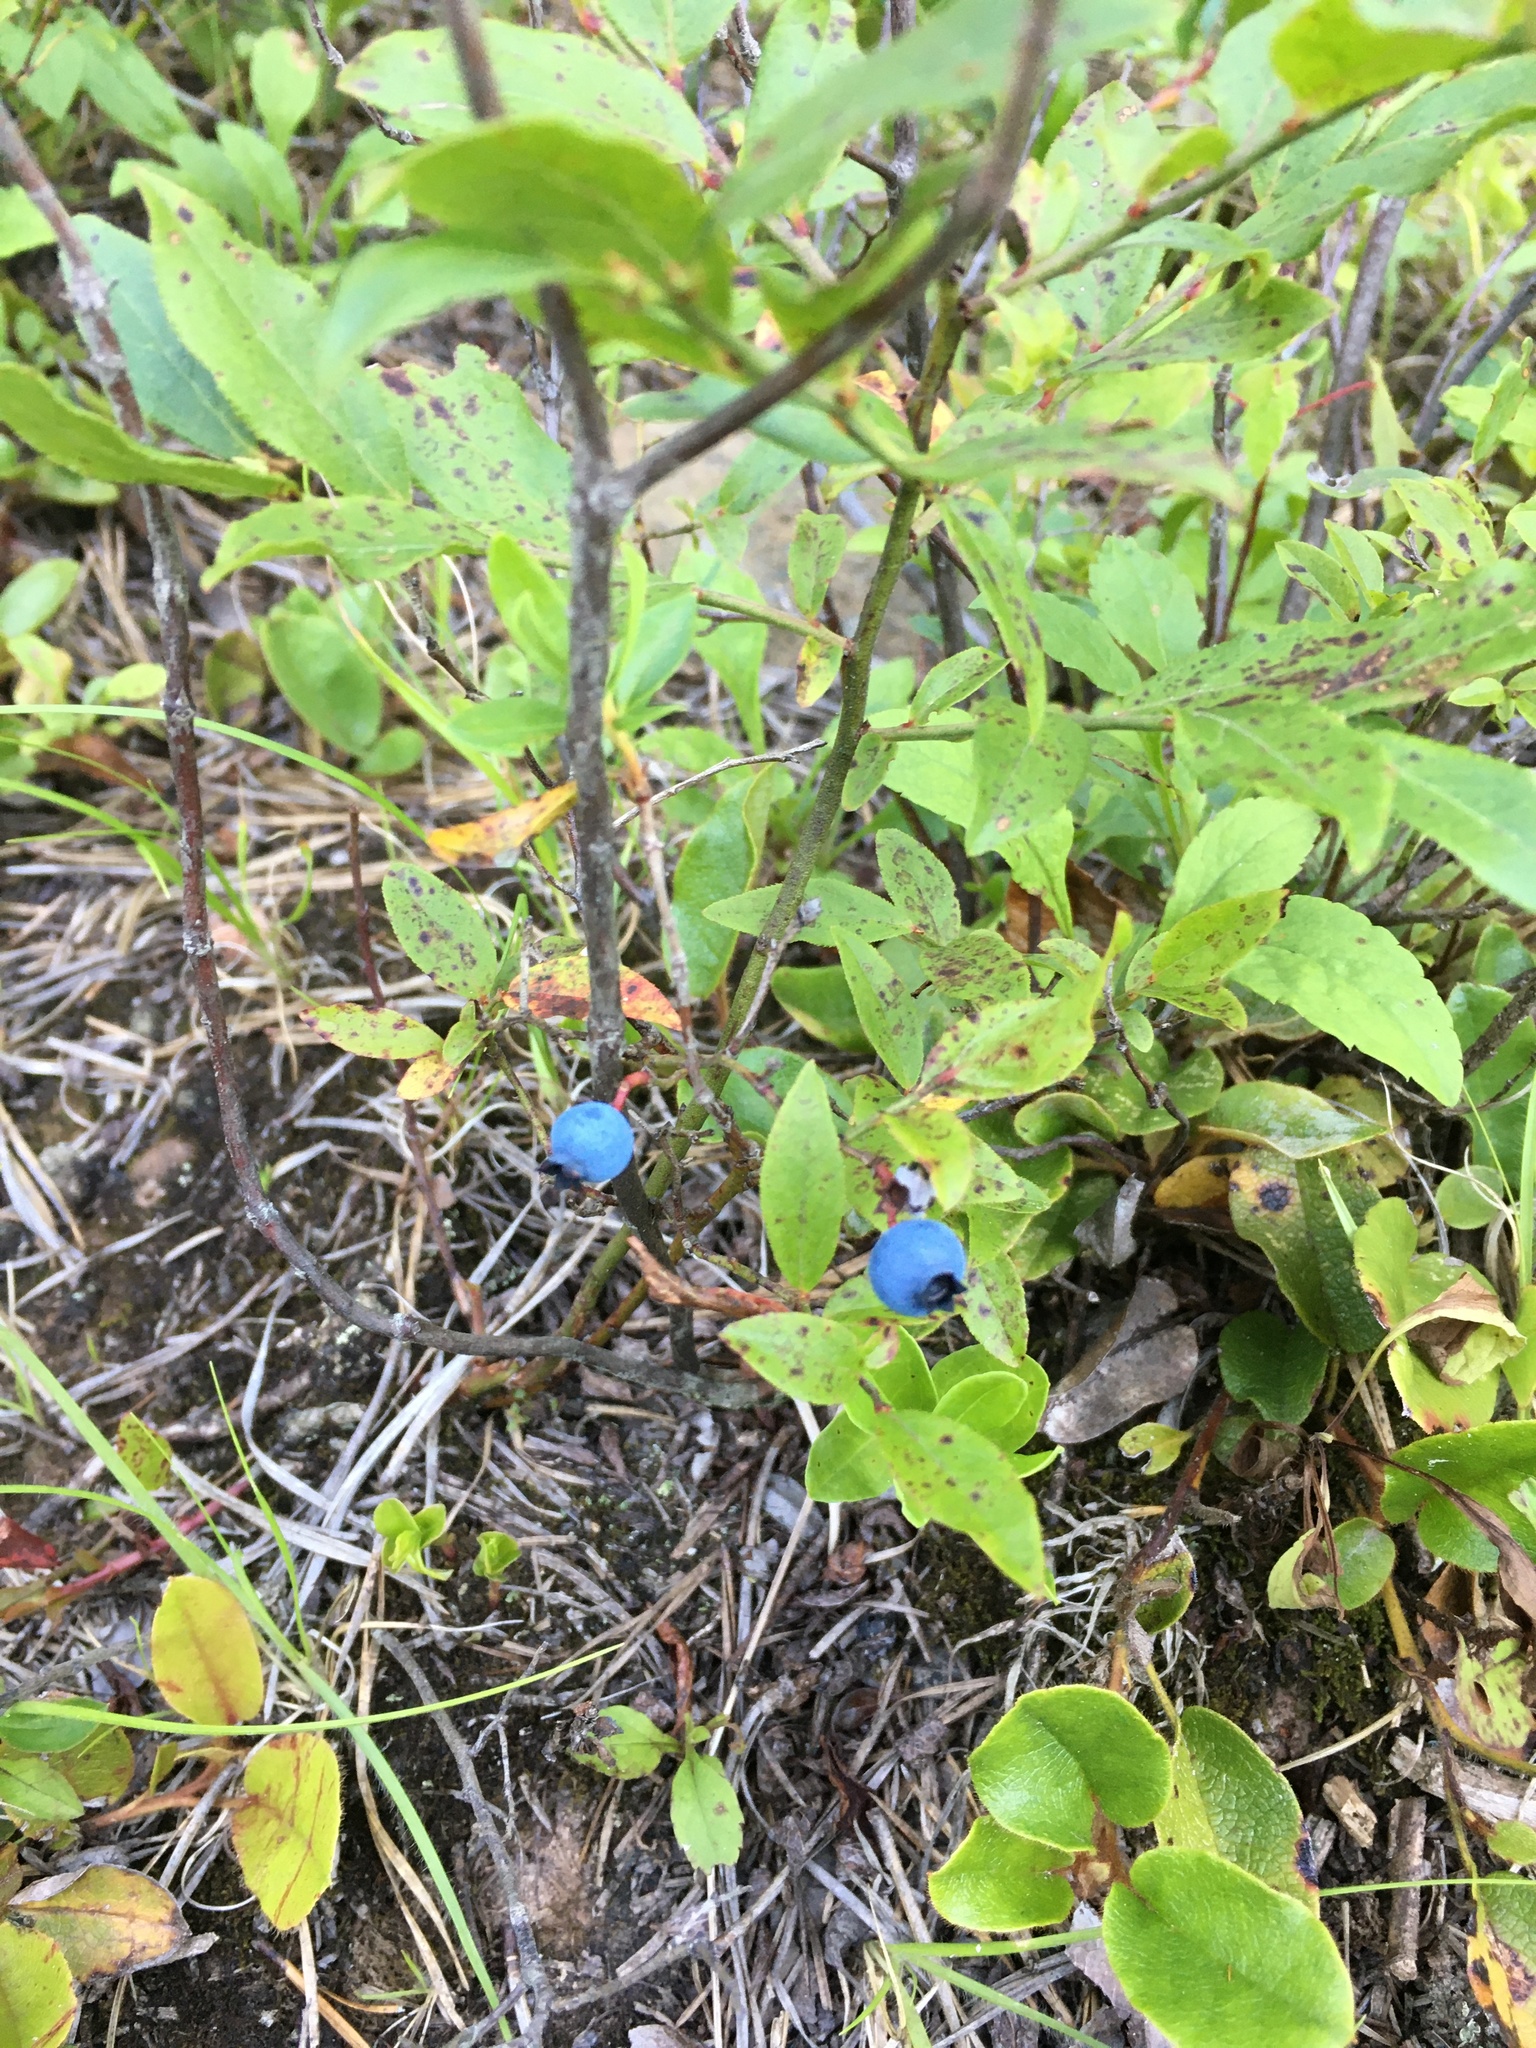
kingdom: Plantae
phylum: Tracheophyta
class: Magnoliopsida
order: Ericales
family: Ericaceae
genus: Vaccinium
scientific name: Vaccinium angustifolium
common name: Early lowbush blueberry
